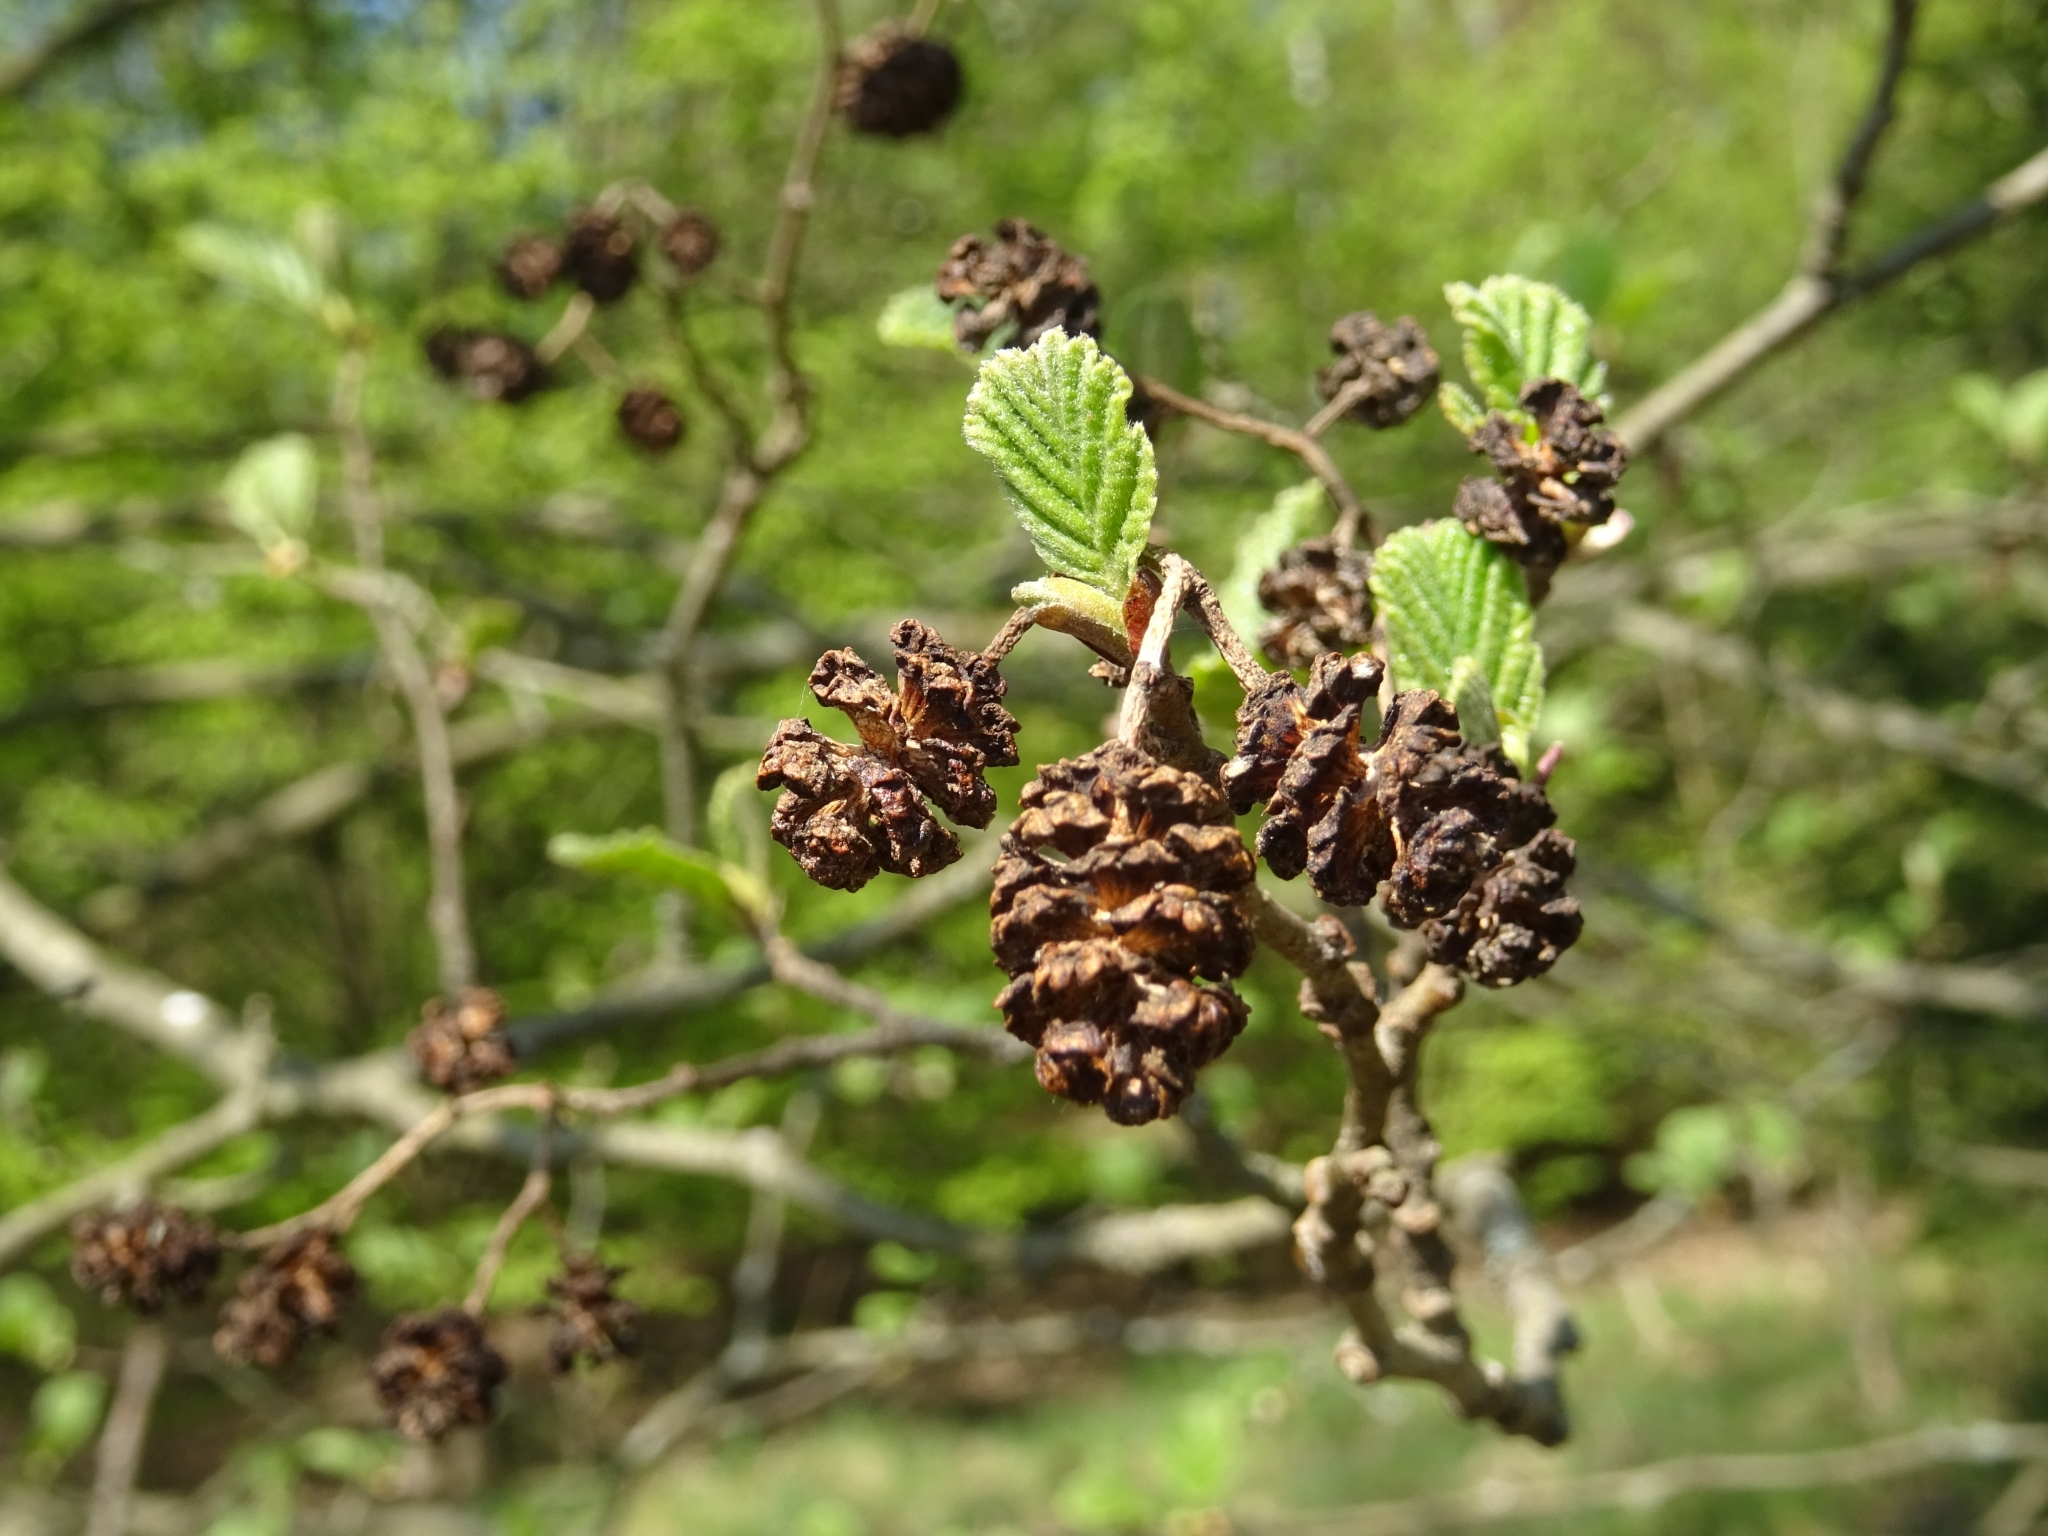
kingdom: Plantae
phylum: Tracheophyta
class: Magnoliopsida
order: Fagales
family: Betulaceae
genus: Alnus
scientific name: Alnus glutinosa
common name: Black alder
